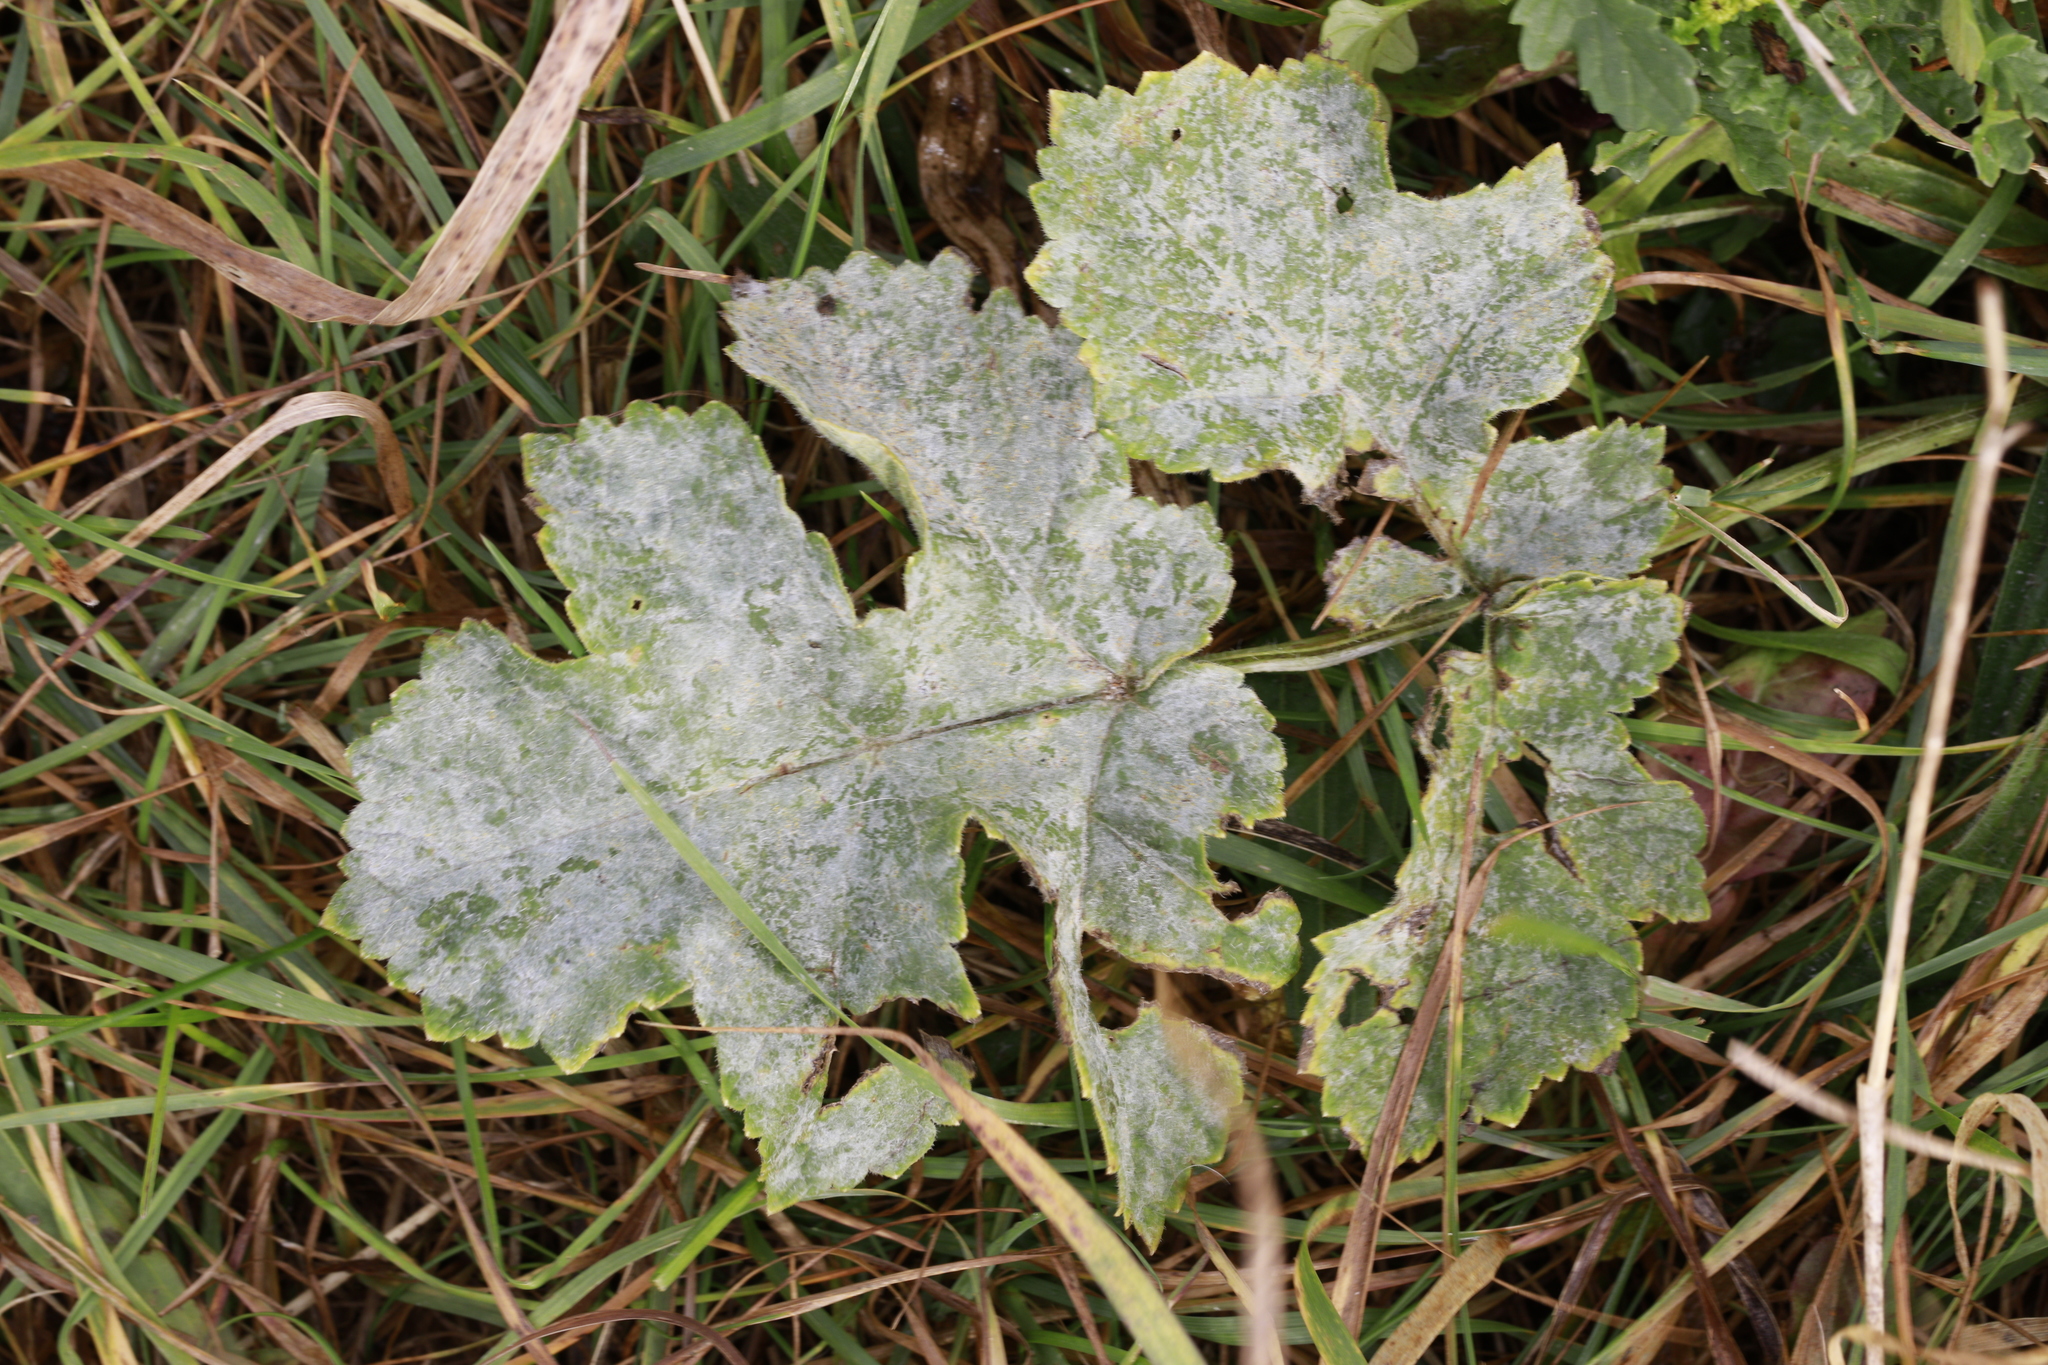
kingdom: Plantae
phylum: Tracheophyta
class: Magnoliopsida
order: Apiales
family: Apiaceae
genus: Heracleum
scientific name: Heracleum sphondylium
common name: Hogweed
